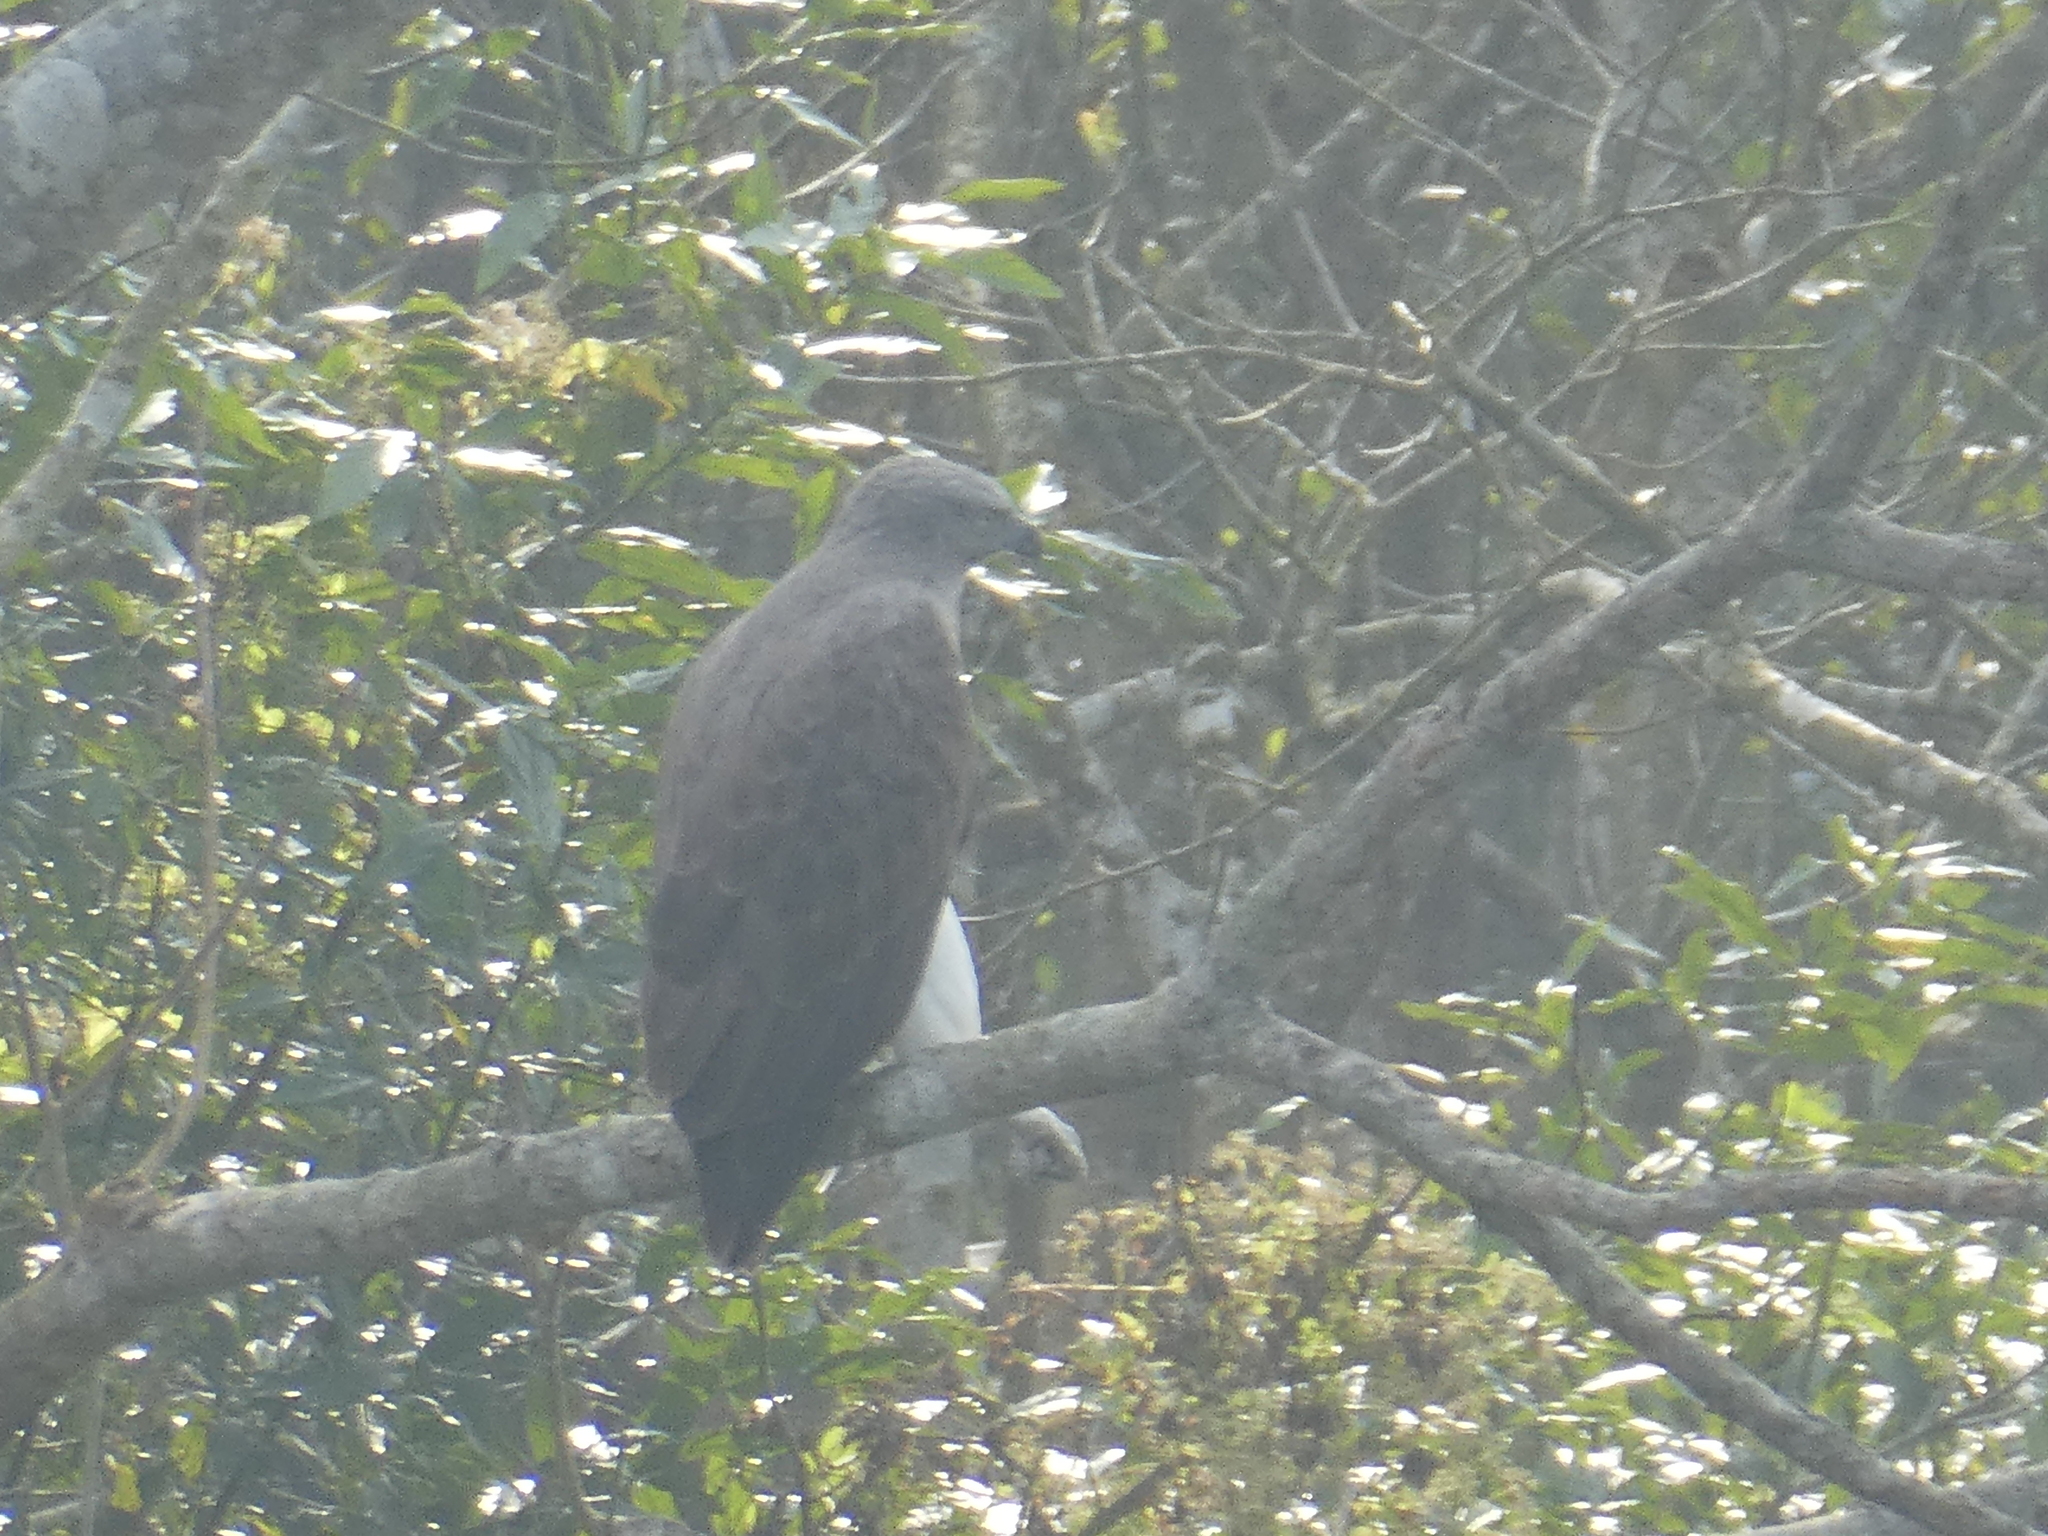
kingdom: Animalia
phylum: Chordata
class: Aves
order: Accipitriformes
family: Accipitridae
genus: Icthyophaga
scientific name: Icthyophaga ichthyaetus
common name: Grey-headed fish eagle
